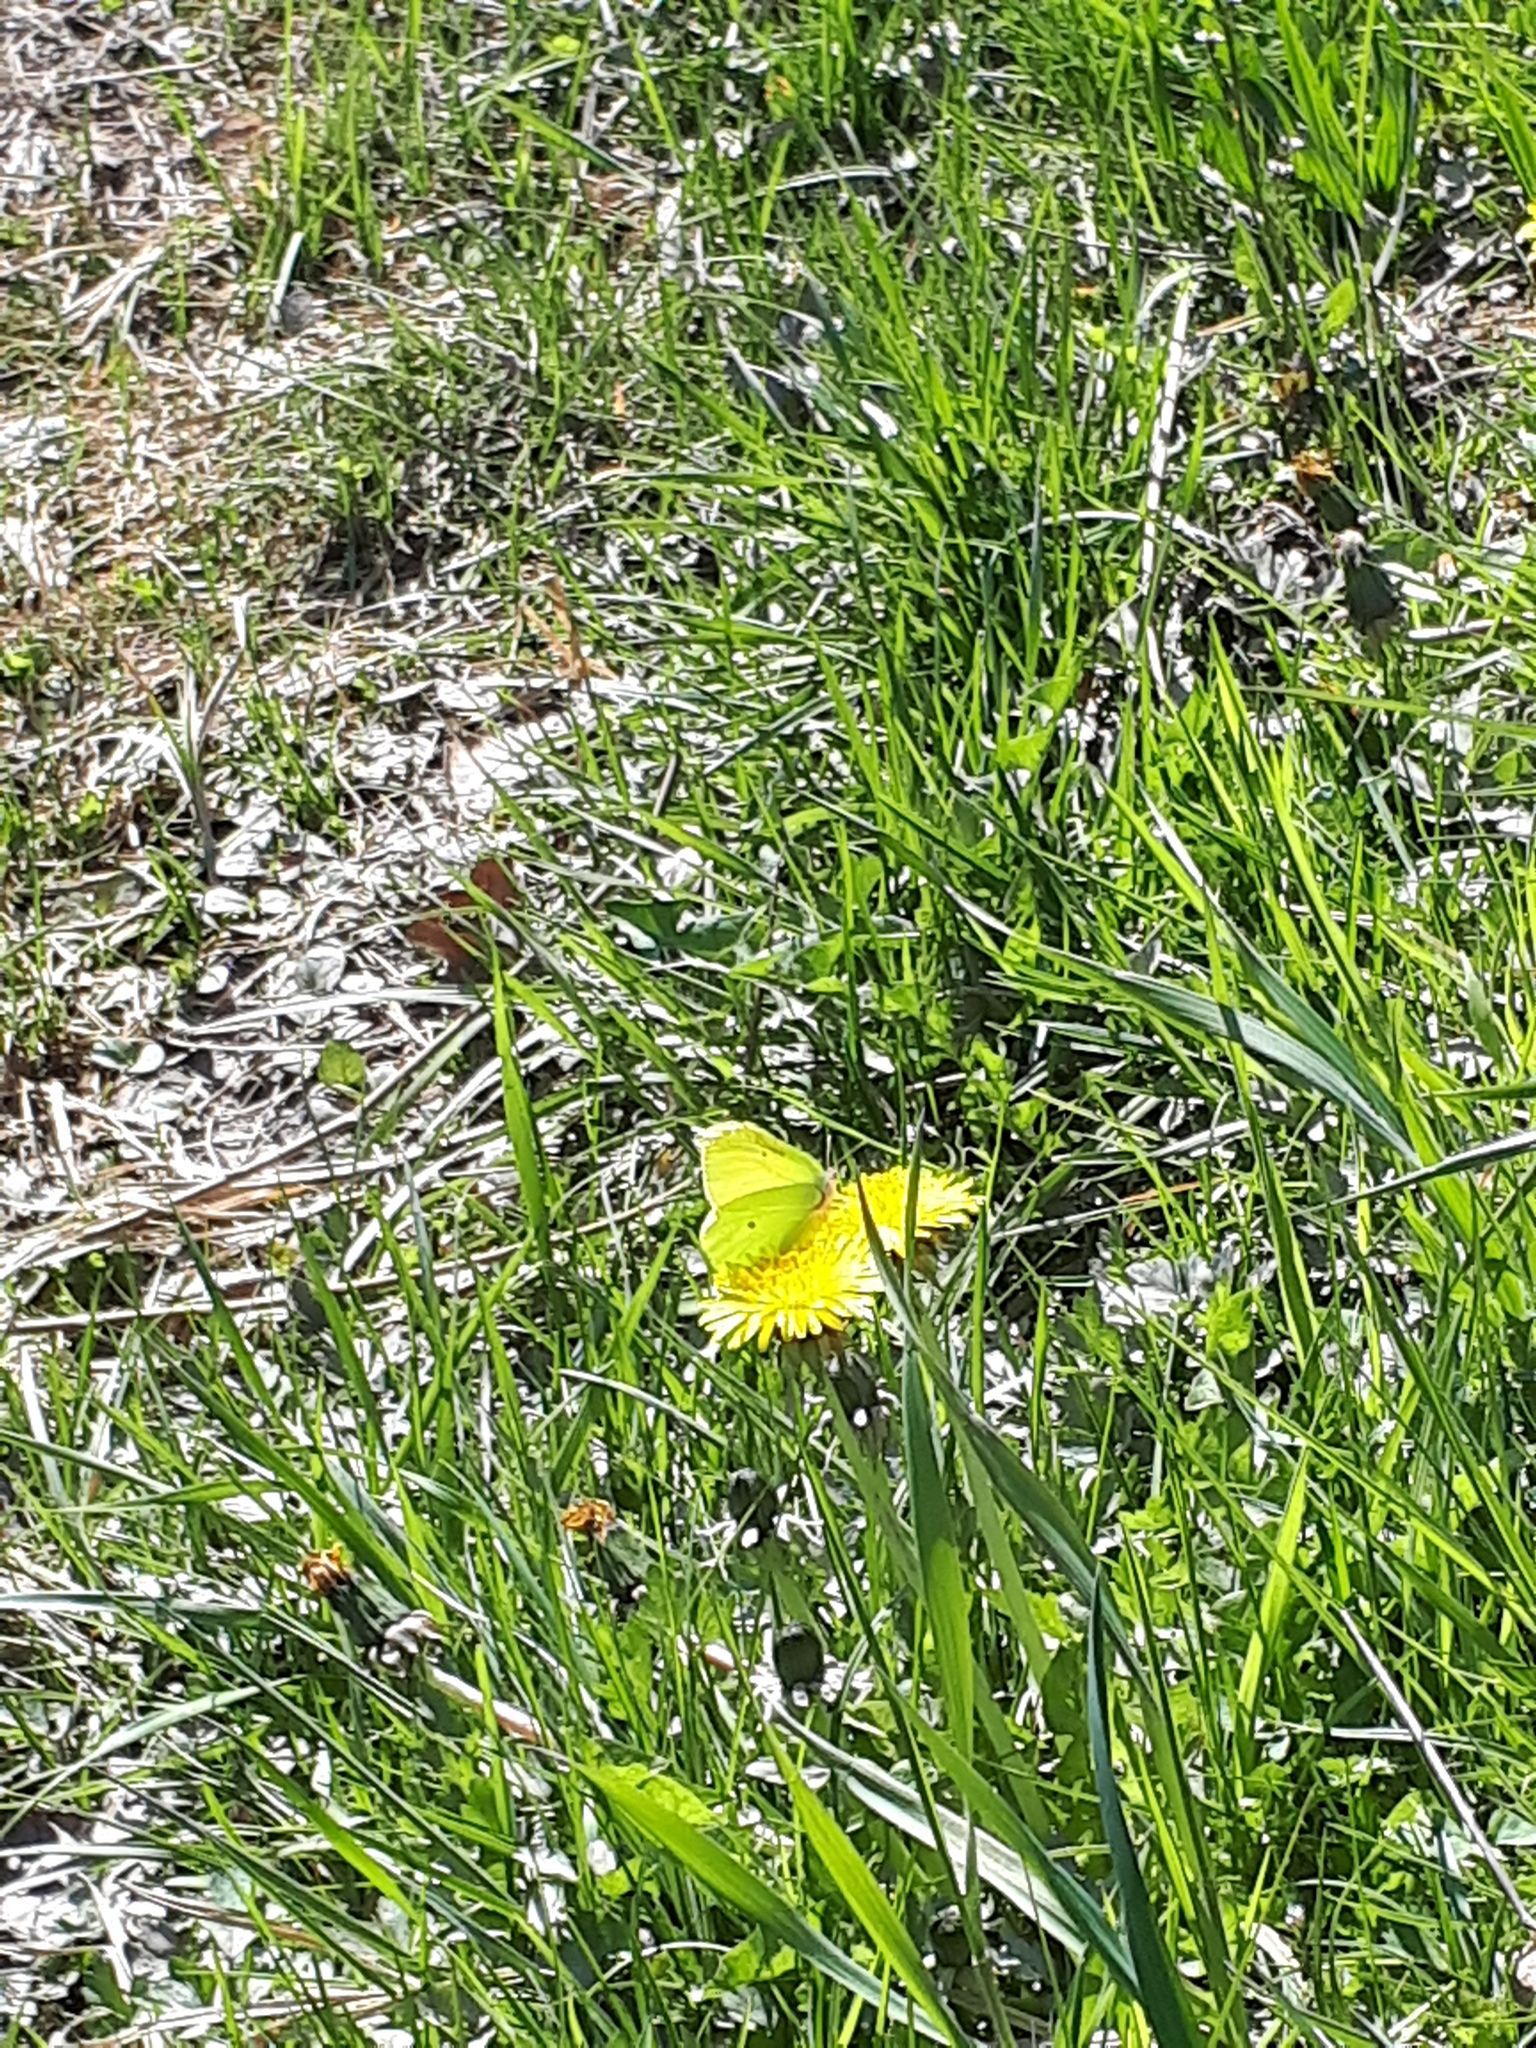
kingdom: Animalia
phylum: Arthropoda
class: Insecta
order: Lepidoptera
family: Pieridae
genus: Gonepteryx
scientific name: Gonepteryx rhamni
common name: Brimstone
